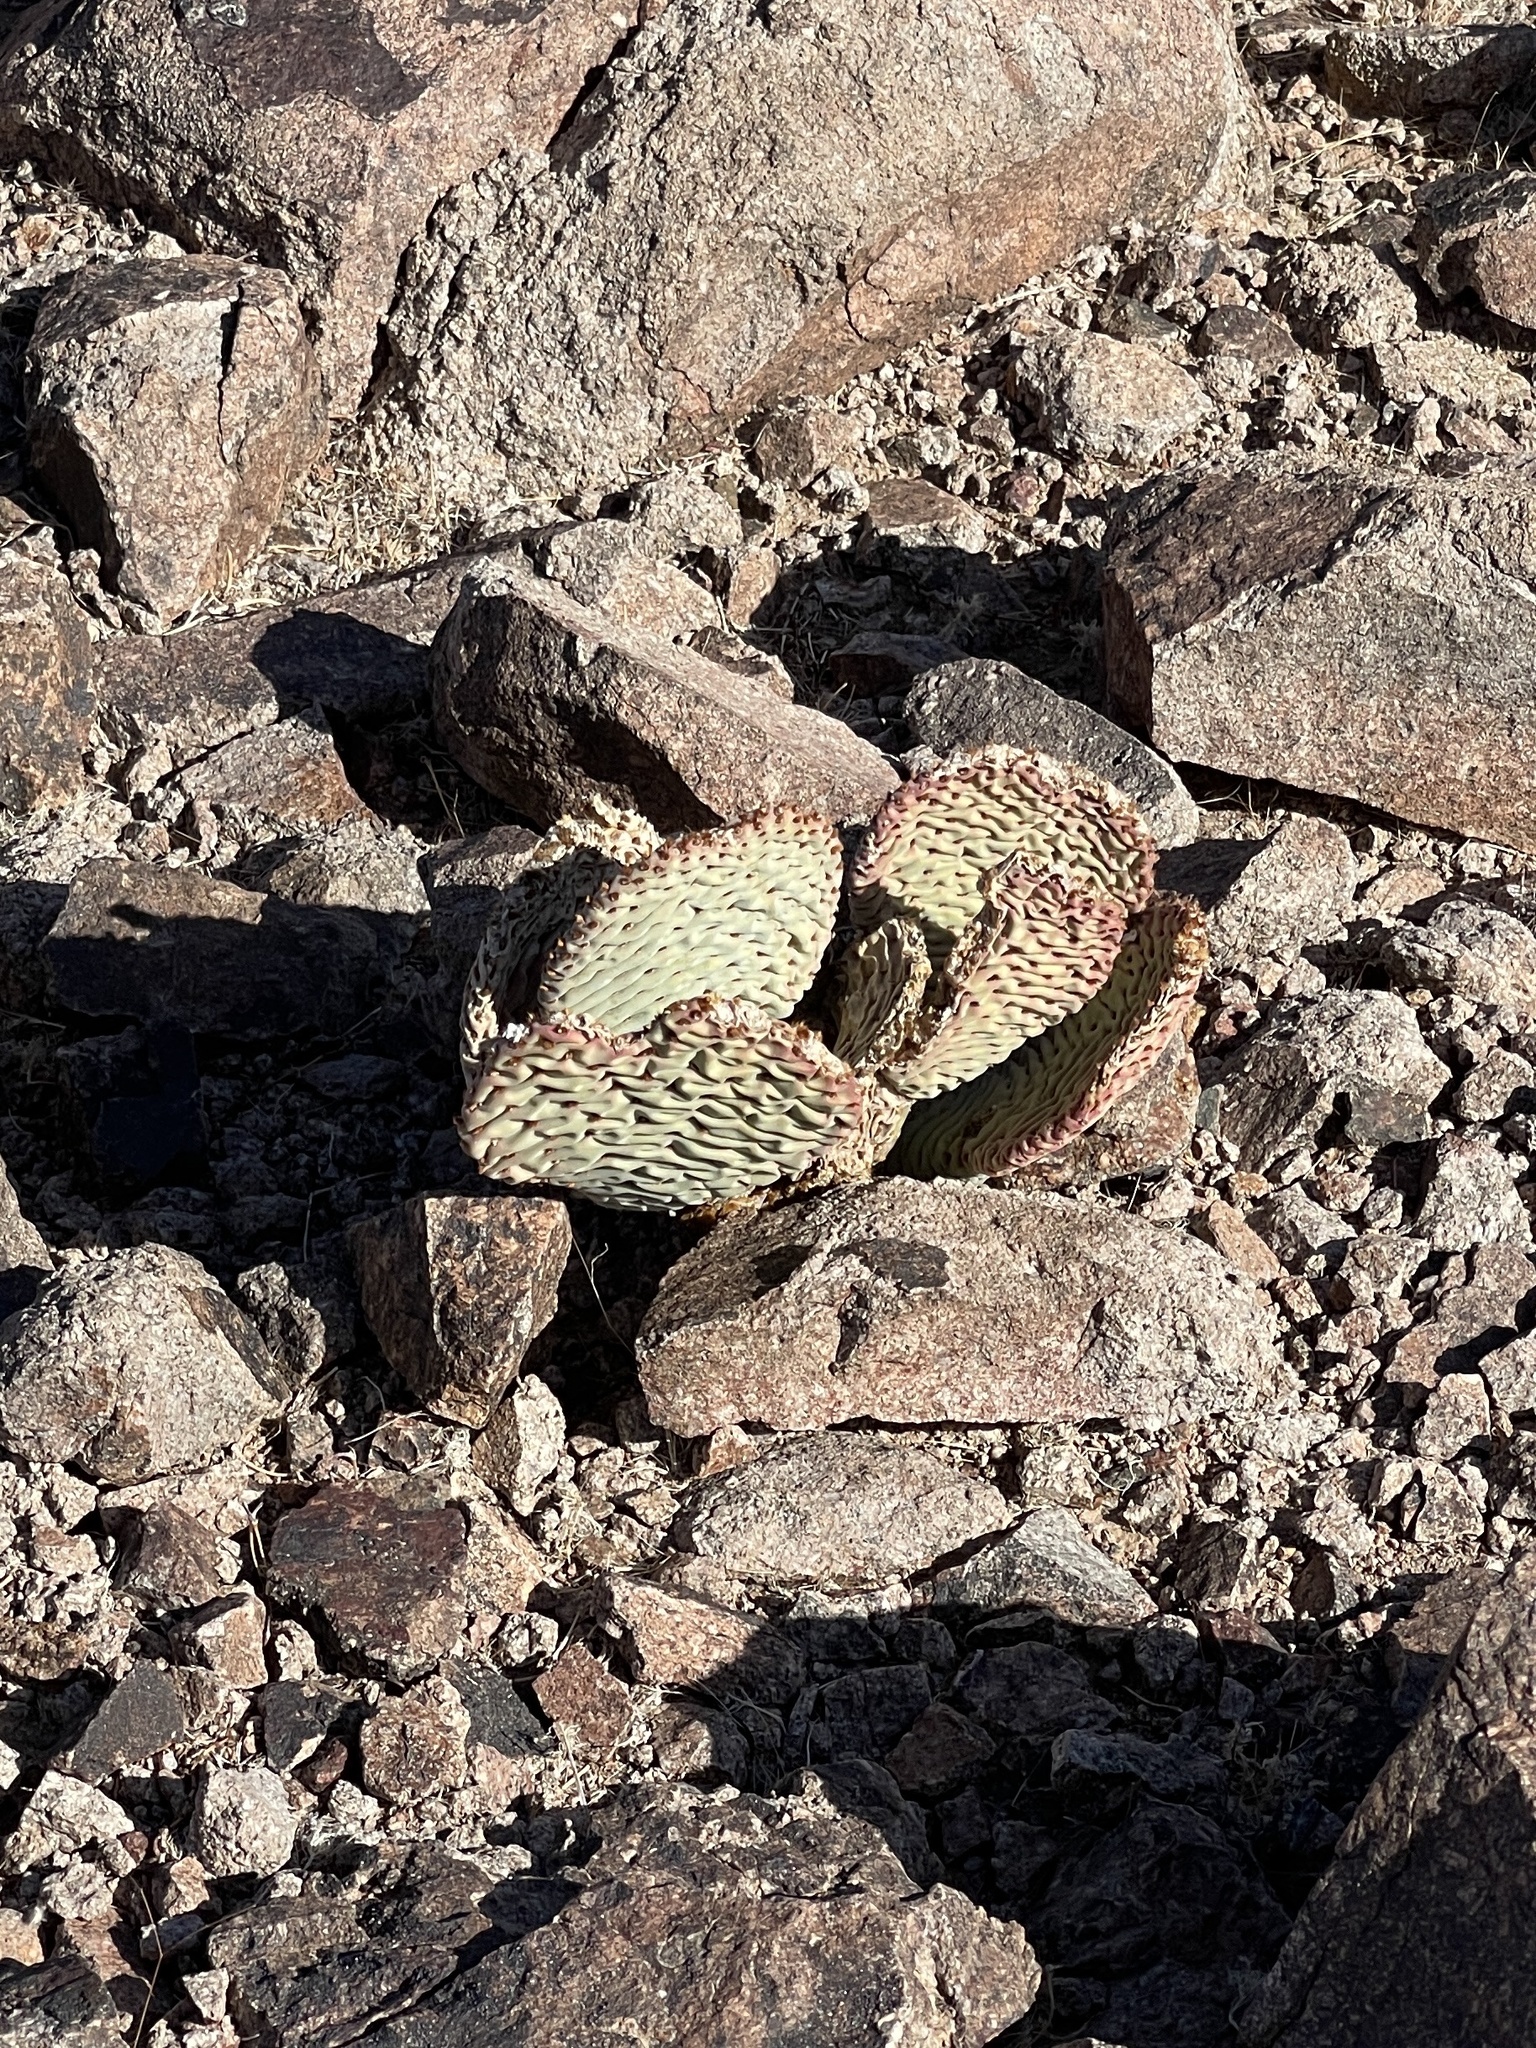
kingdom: Plantae
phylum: Tracheophyta
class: Magnoliopsida
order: Caryophyllales
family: Cactaceae
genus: Opuntia
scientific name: Opuntia basilaris
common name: Beavertail prickly-pear
